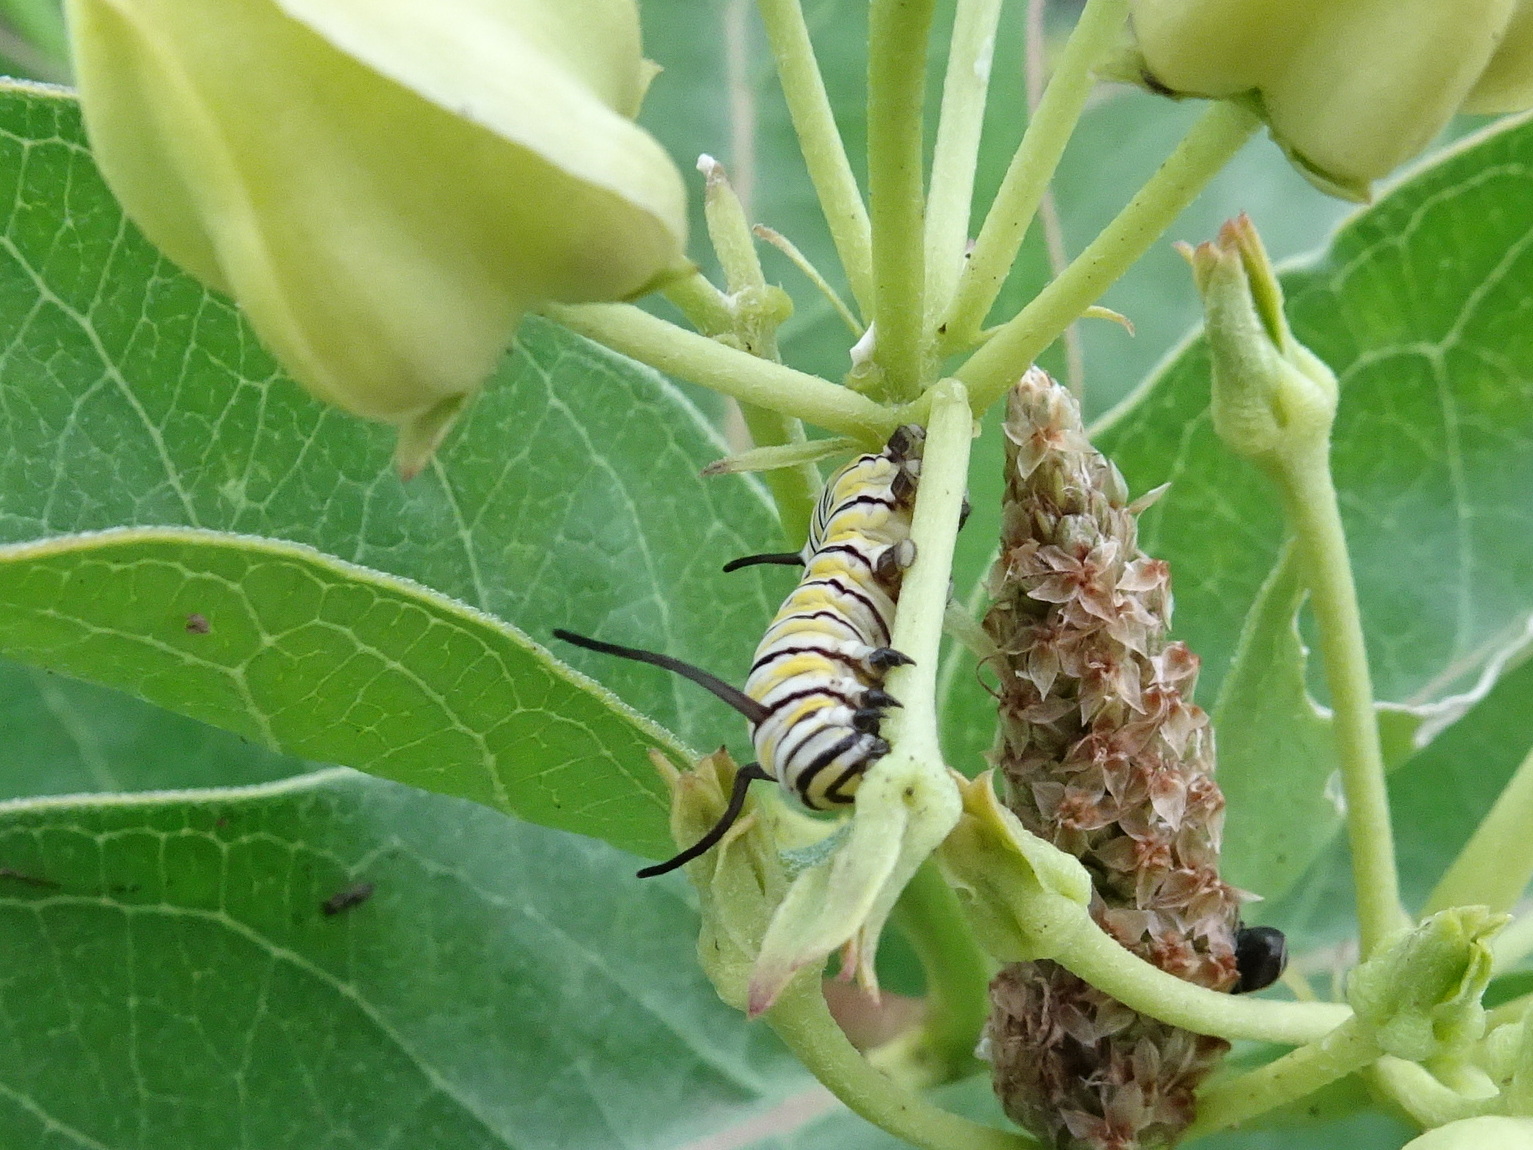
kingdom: Animalia
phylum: Arthropoda
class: Insecta
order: Lepidoptera
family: Nymphalidae
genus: Danaus
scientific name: Danaus plexippus
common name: Monarch
